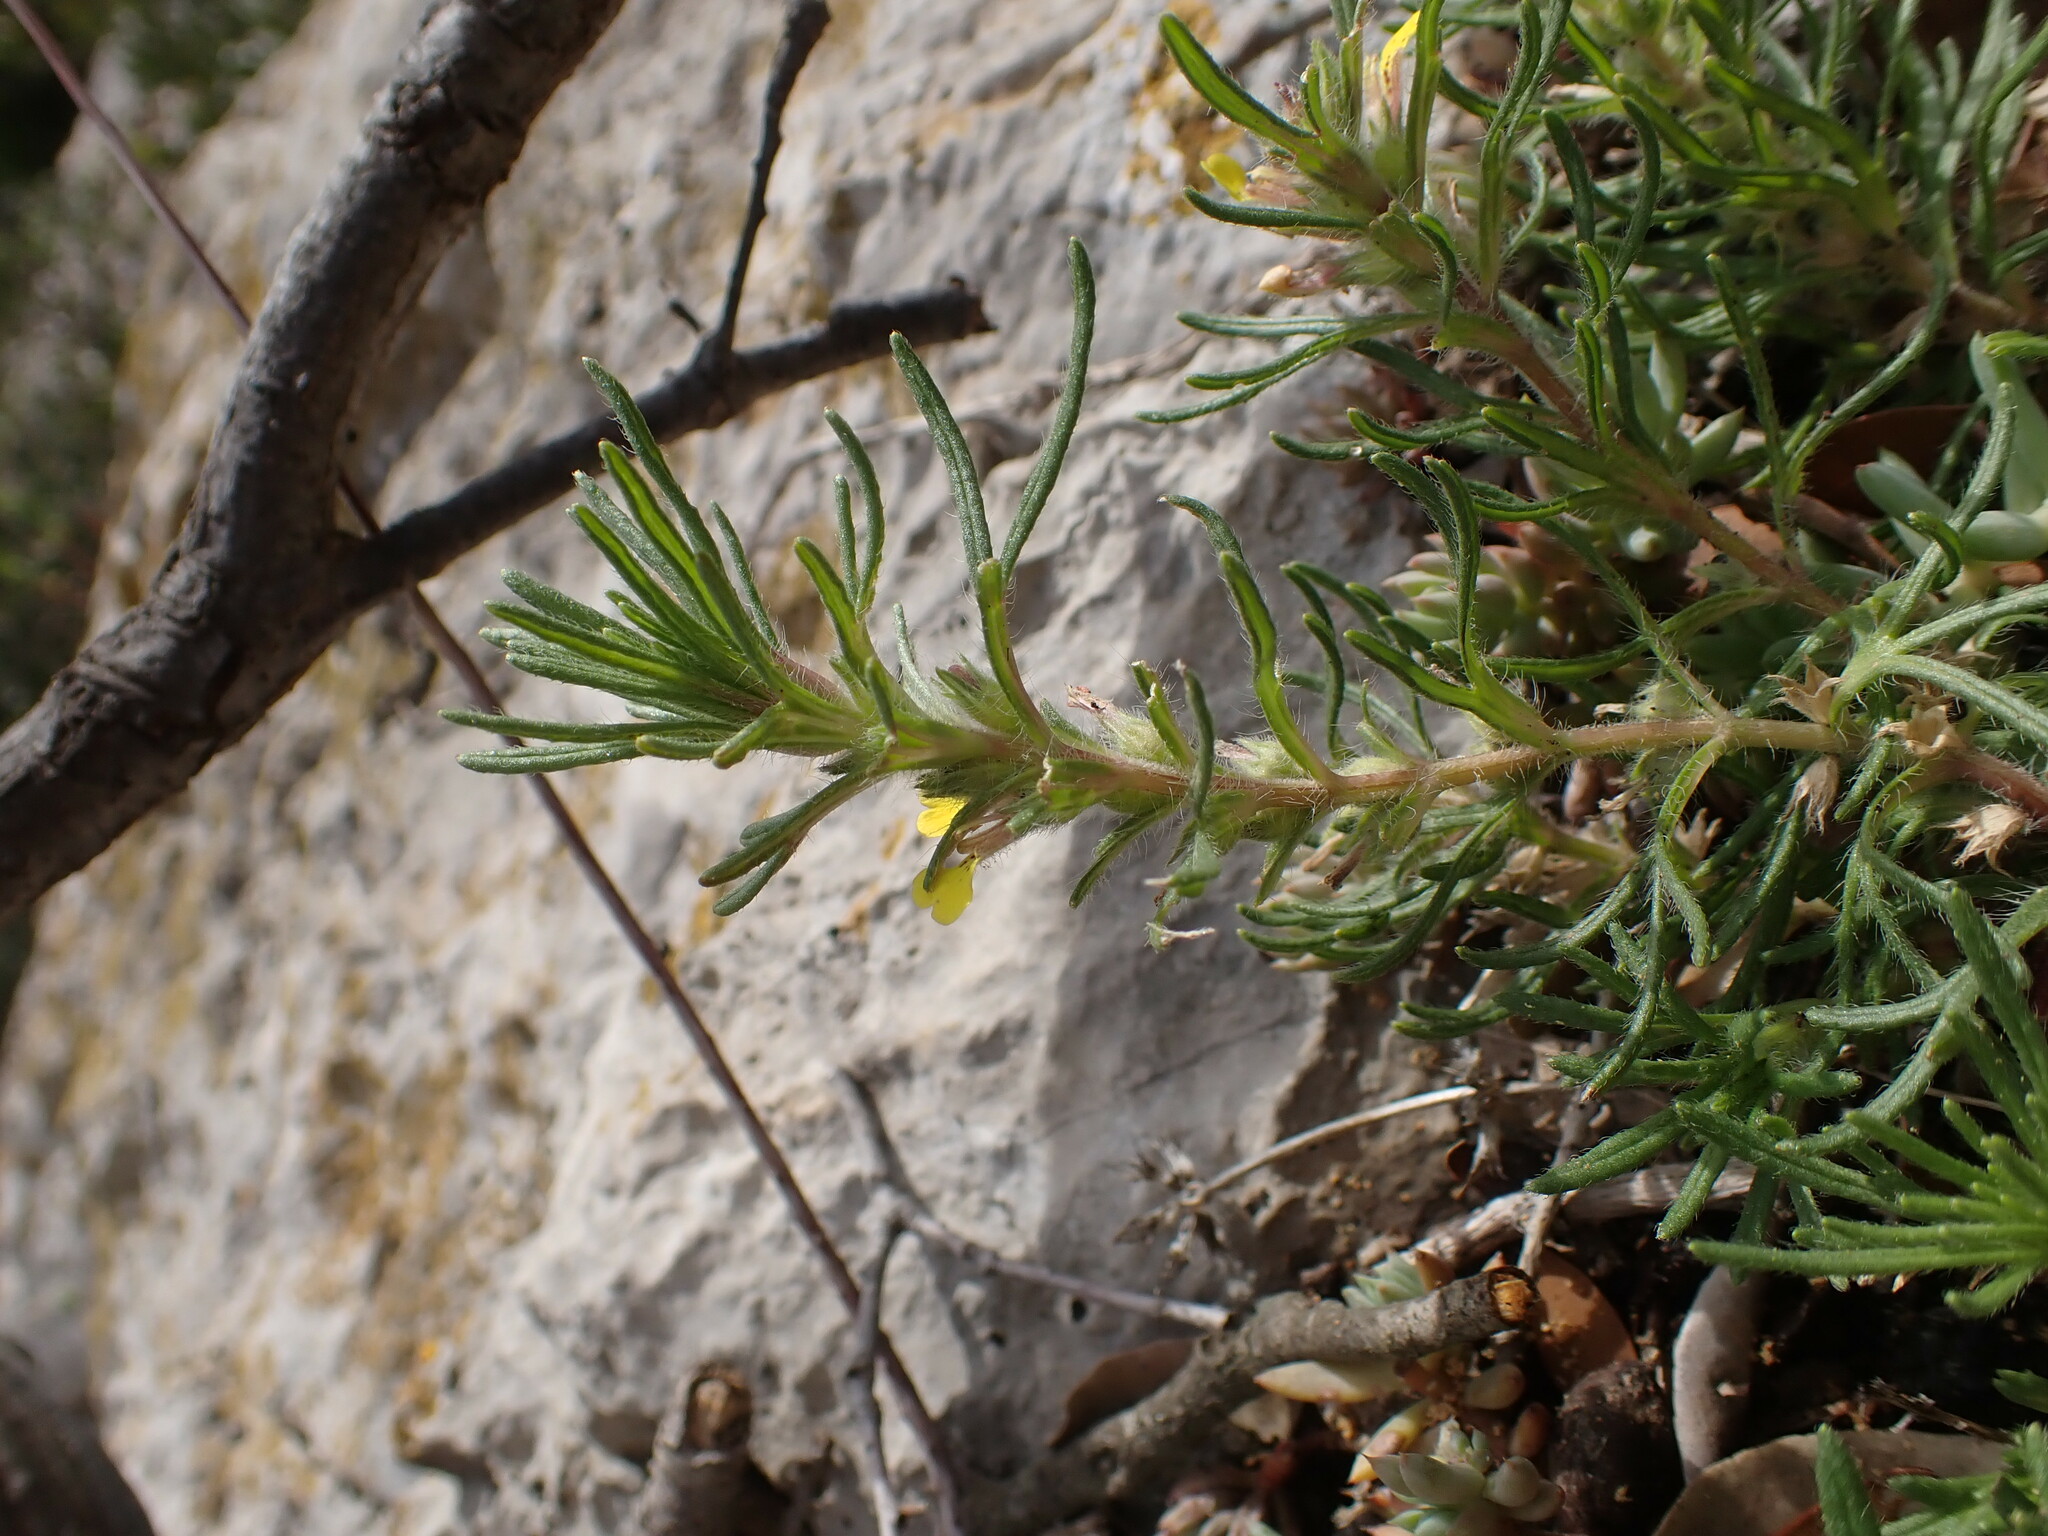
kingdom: Plantae
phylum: Tracheophyta
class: Magnoliopsida
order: Lamiales
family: Lamiaceae
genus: Ajuga
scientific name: Ajuga chamaepitys
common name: Ground-pine
